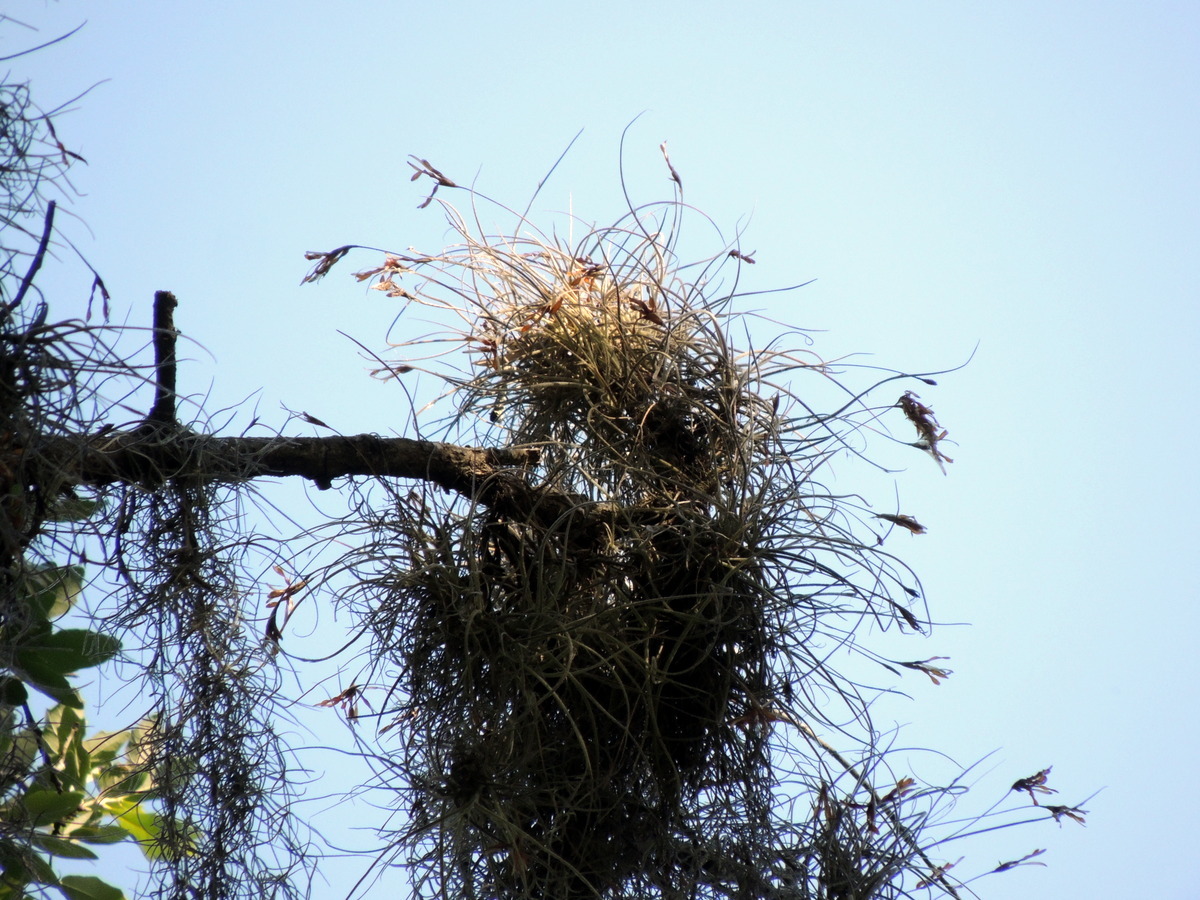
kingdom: Plantae
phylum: Tracheophyta
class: Liliopsida
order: Poales
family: Bromeliaceae
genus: Tillandsia
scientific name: Tillandsia recurvata
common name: Small ballmoss
